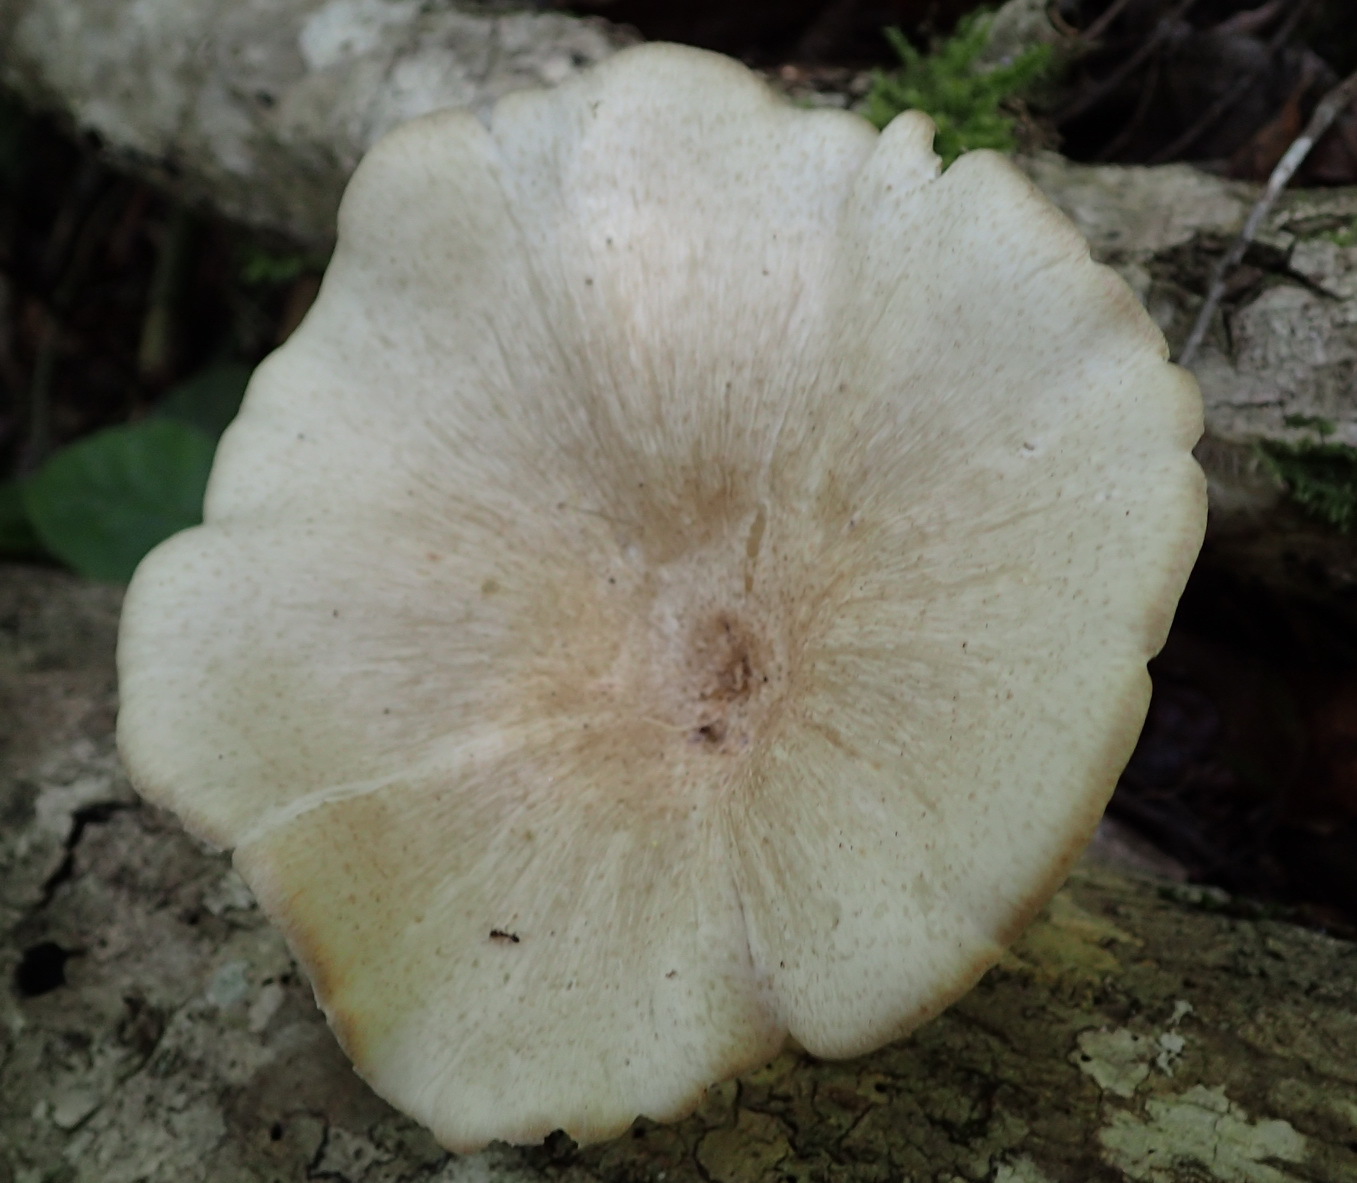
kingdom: Fungi
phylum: Basidiomycota
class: Agaricomycetes
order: Polyporales
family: Polyporaceae
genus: Lentinus
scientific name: Lentinus sajor-caju
